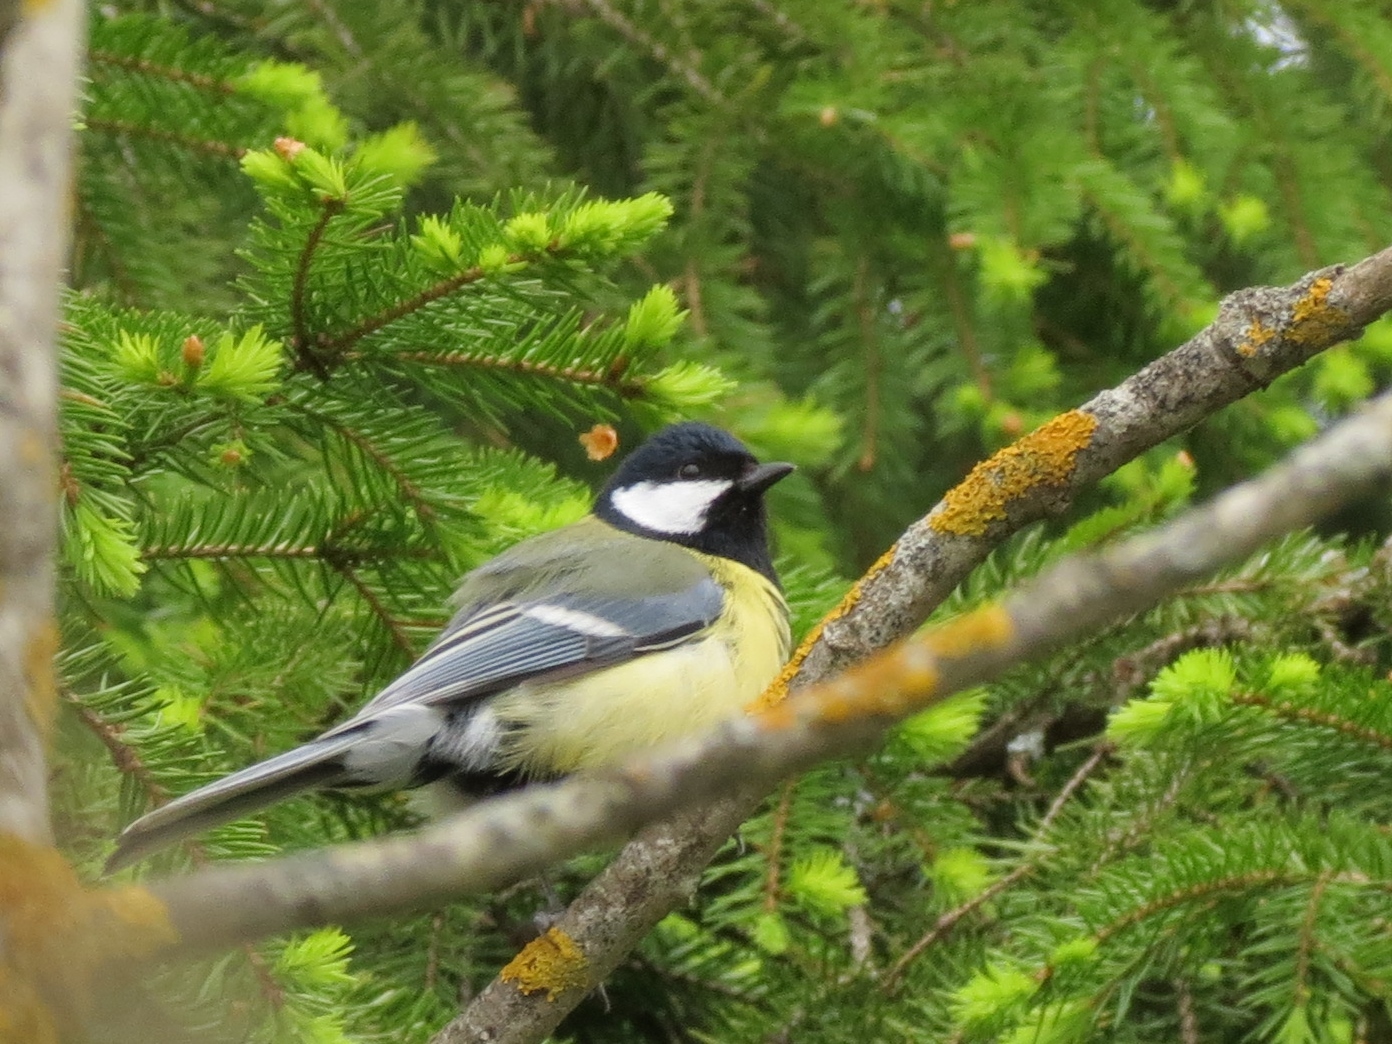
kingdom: Animalia
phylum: Chordata
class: Aves
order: Passeriformes
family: Paridae
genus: Parus
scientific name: Parus major
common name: Great tit
